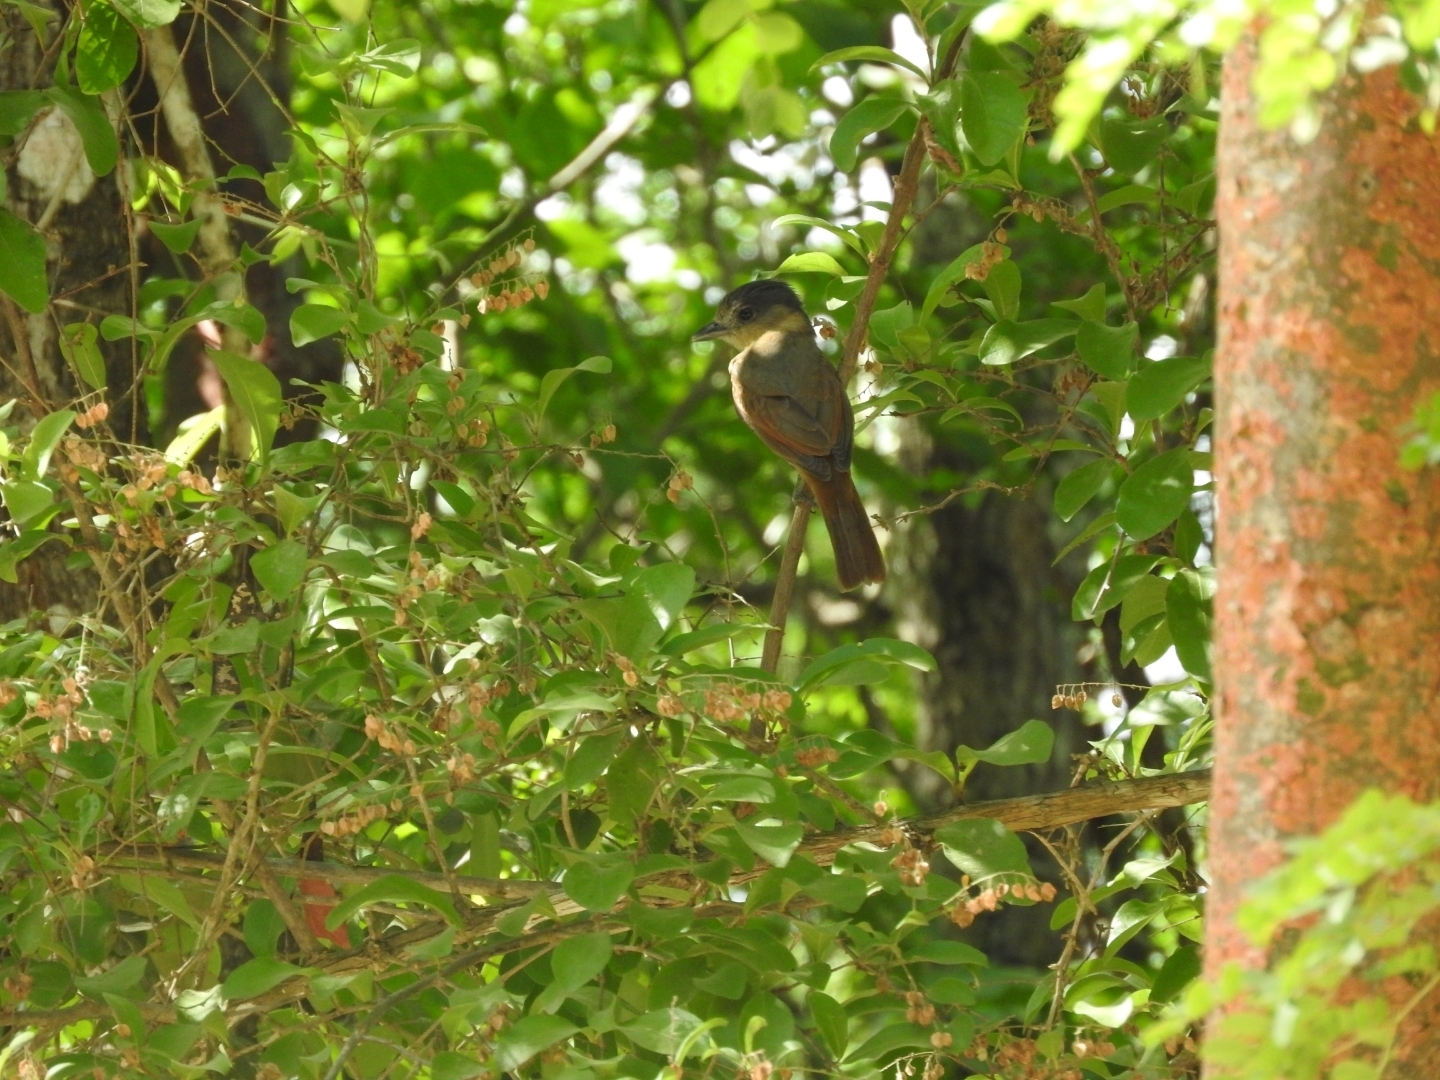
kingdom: Animalia
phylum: Chordata
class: Aves
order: Passeriformes
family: Cotingidae
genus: Pachyramphus
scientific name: Pachyramphus aglaiae
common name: Rose-throated becard
